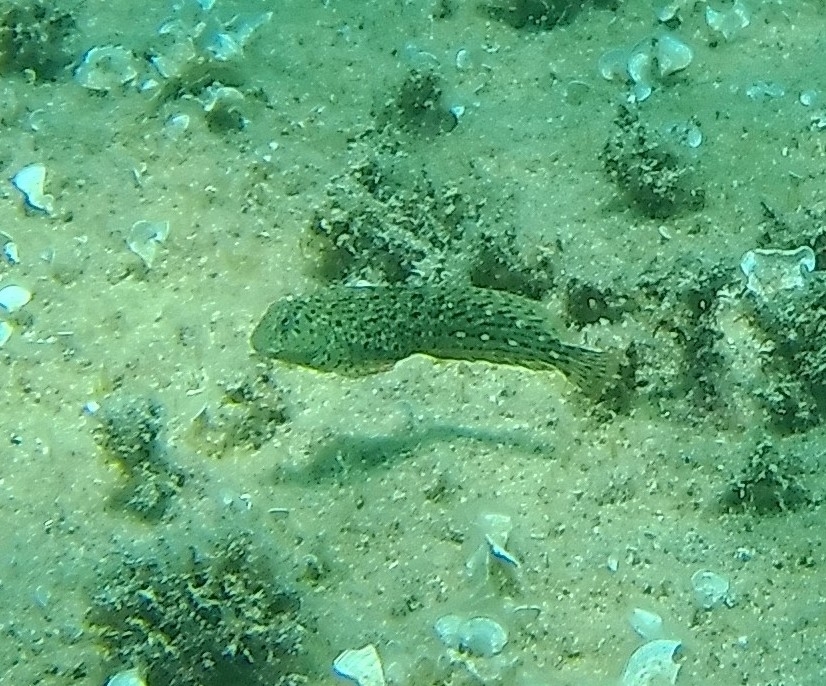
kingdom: Animalia
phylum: Chordata
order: Perciformes
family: Blenniidae
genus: Parablennius
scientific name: Parablennius sanguinolentus
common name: Black sea blenny
